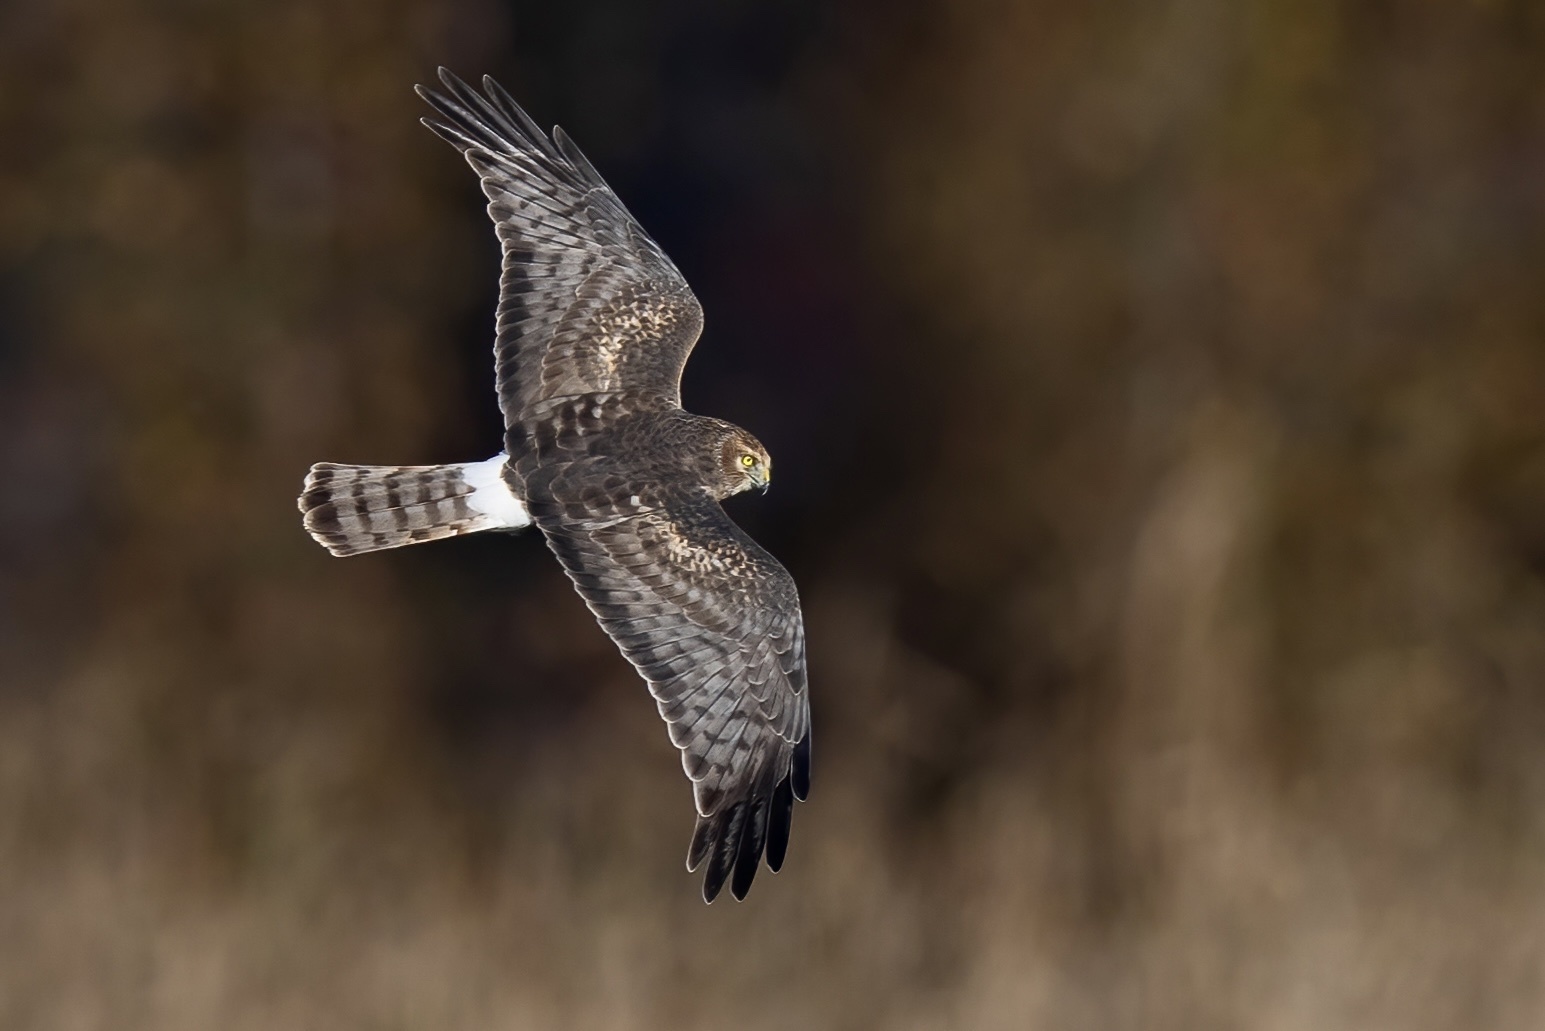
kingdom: Animalia
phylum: Chordata
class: Aves
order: Accipitriformes
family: Accipitridae
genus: Circus
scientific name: Circus cyaneus
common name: Hen harrier
